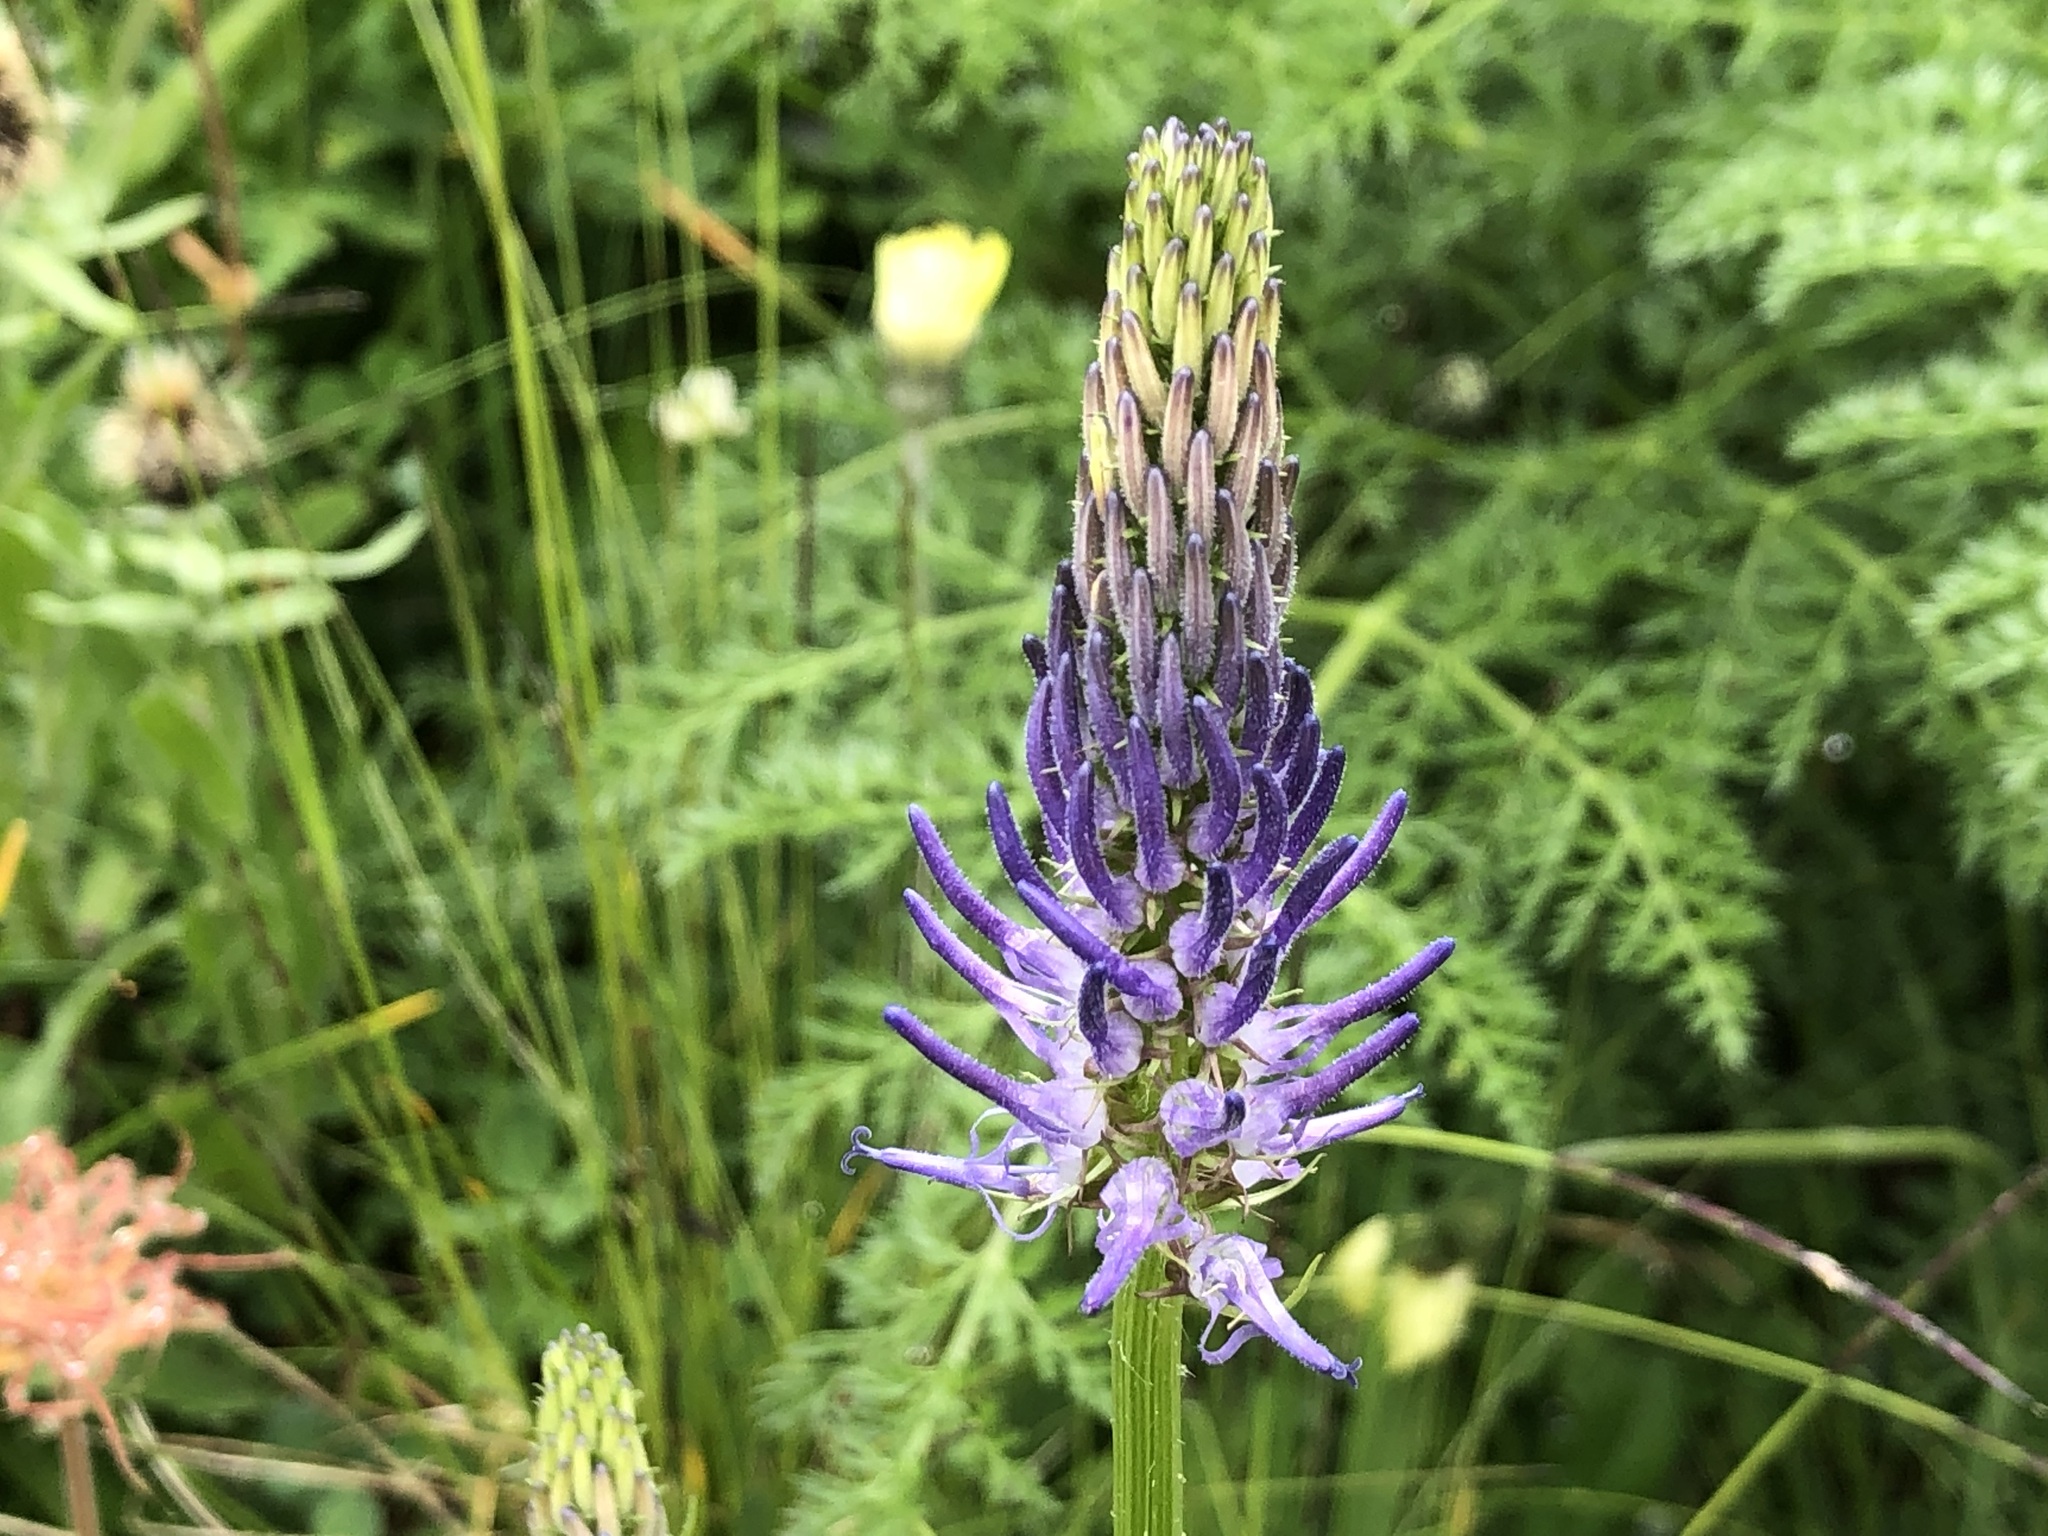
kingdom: Plantae
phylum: Tracheophyta
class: Magnoliopsida
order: Asterales
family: Campanulaceae
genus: Phyteuma
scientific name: Phyteuma betonicifolium
